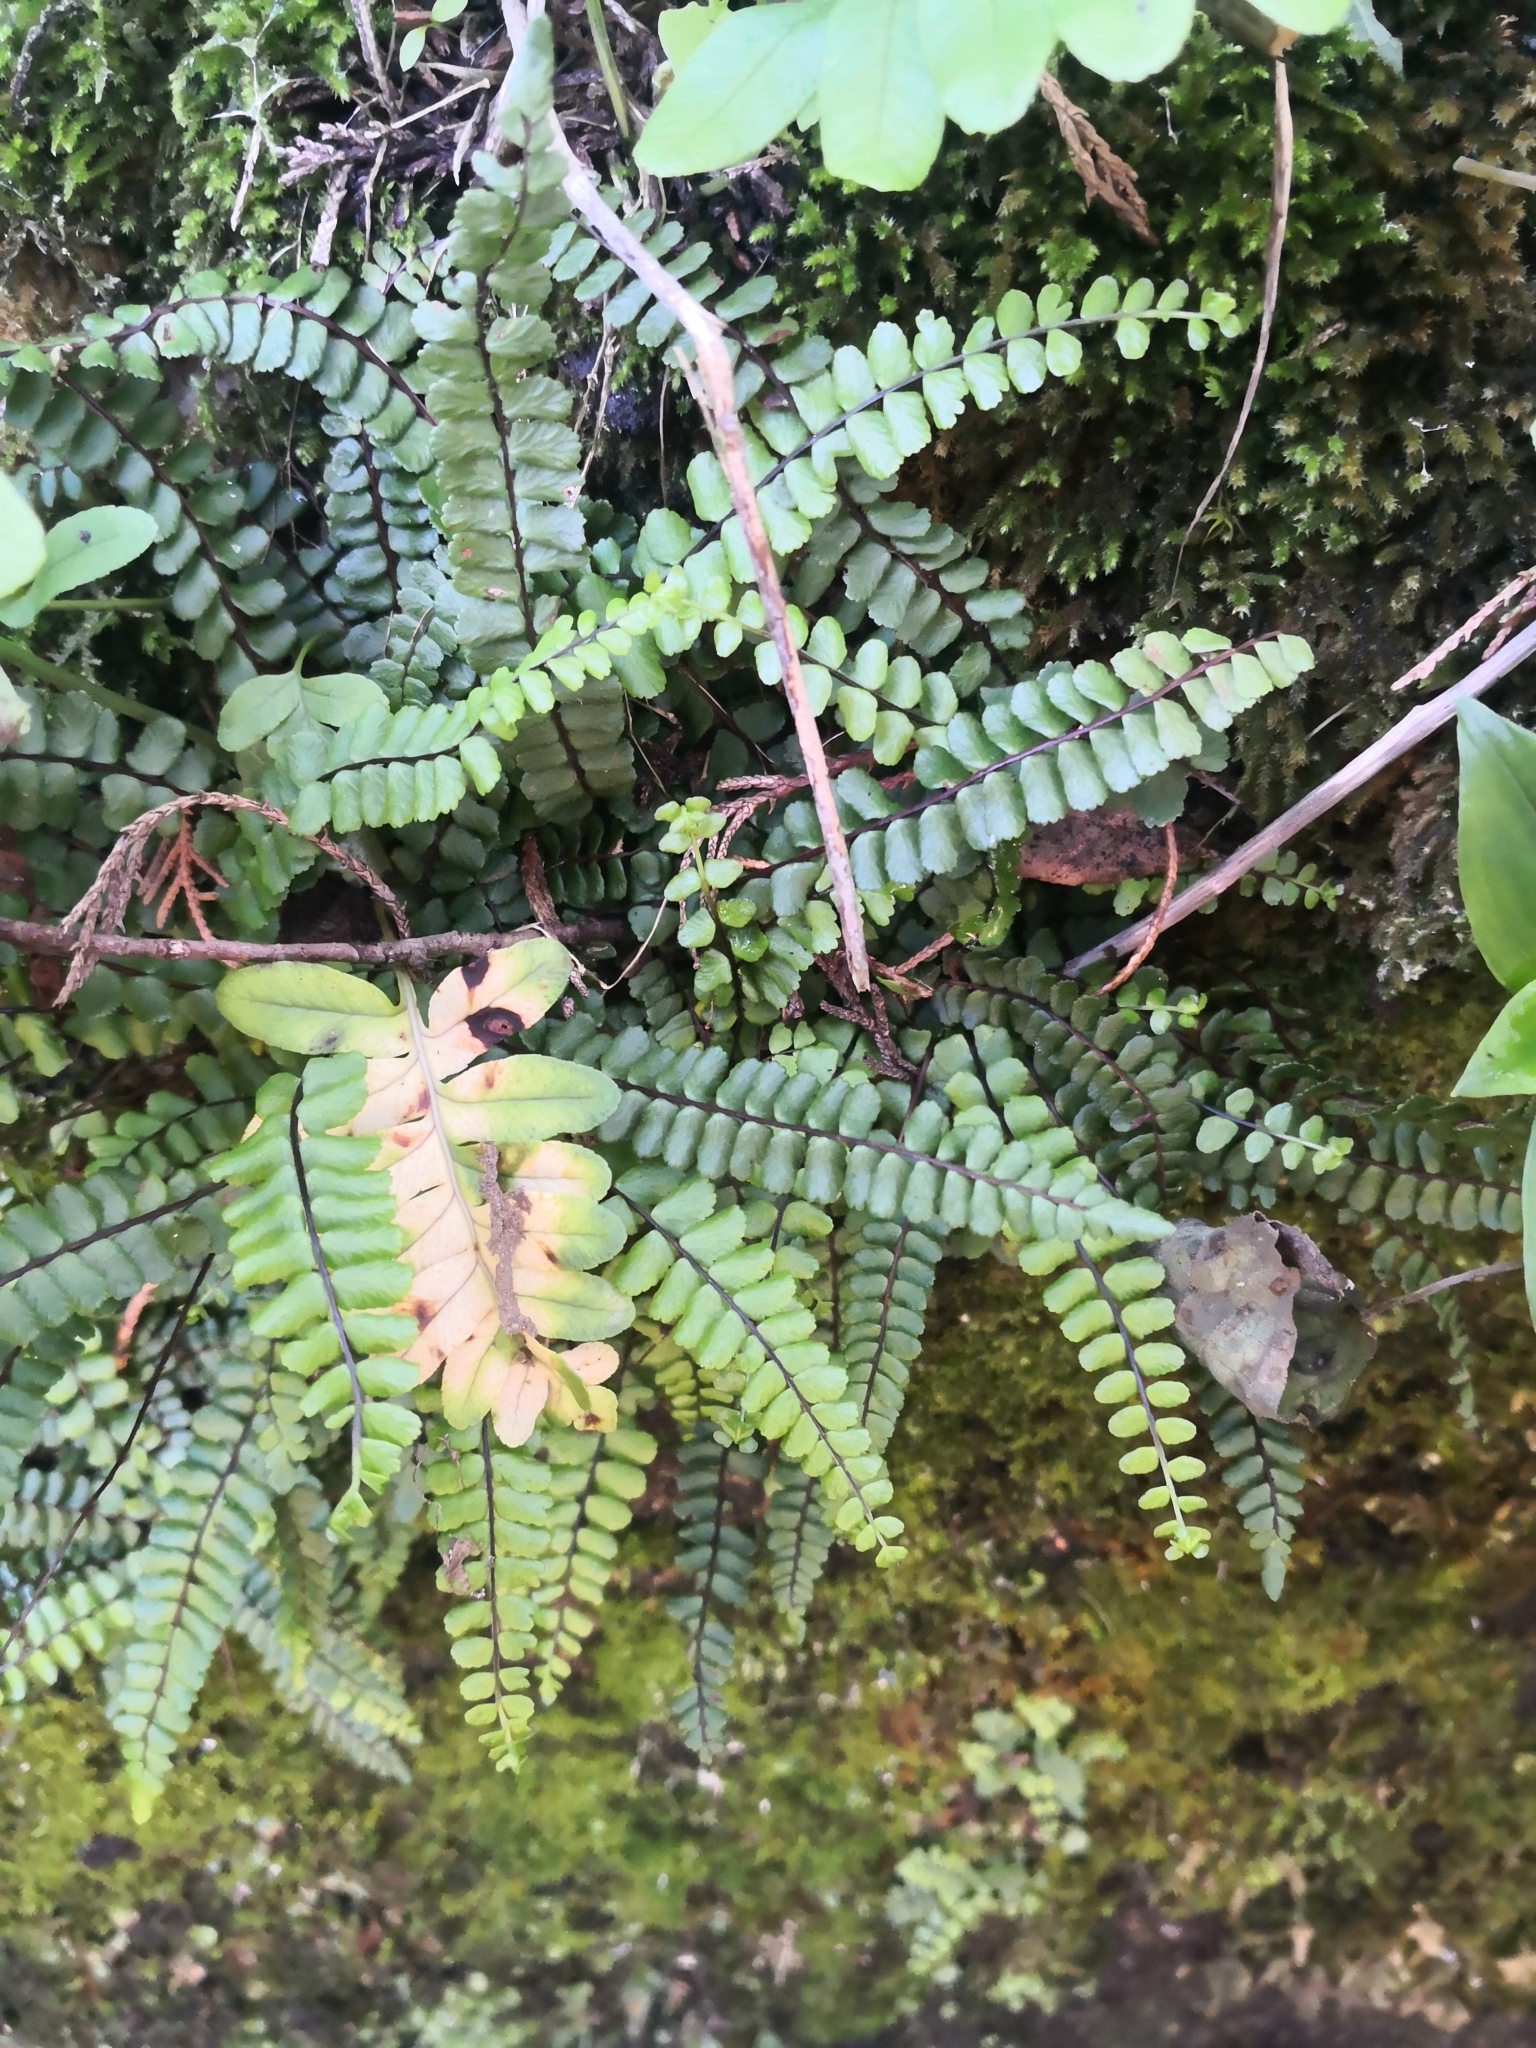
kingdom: Plantae
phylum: Tracheophyta
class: Polypodiopsida
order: Polypodiales
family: Aspleniaceae
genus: Asplenium
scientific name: Asplenium trichomanes
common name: Maidenhair spleenwort
